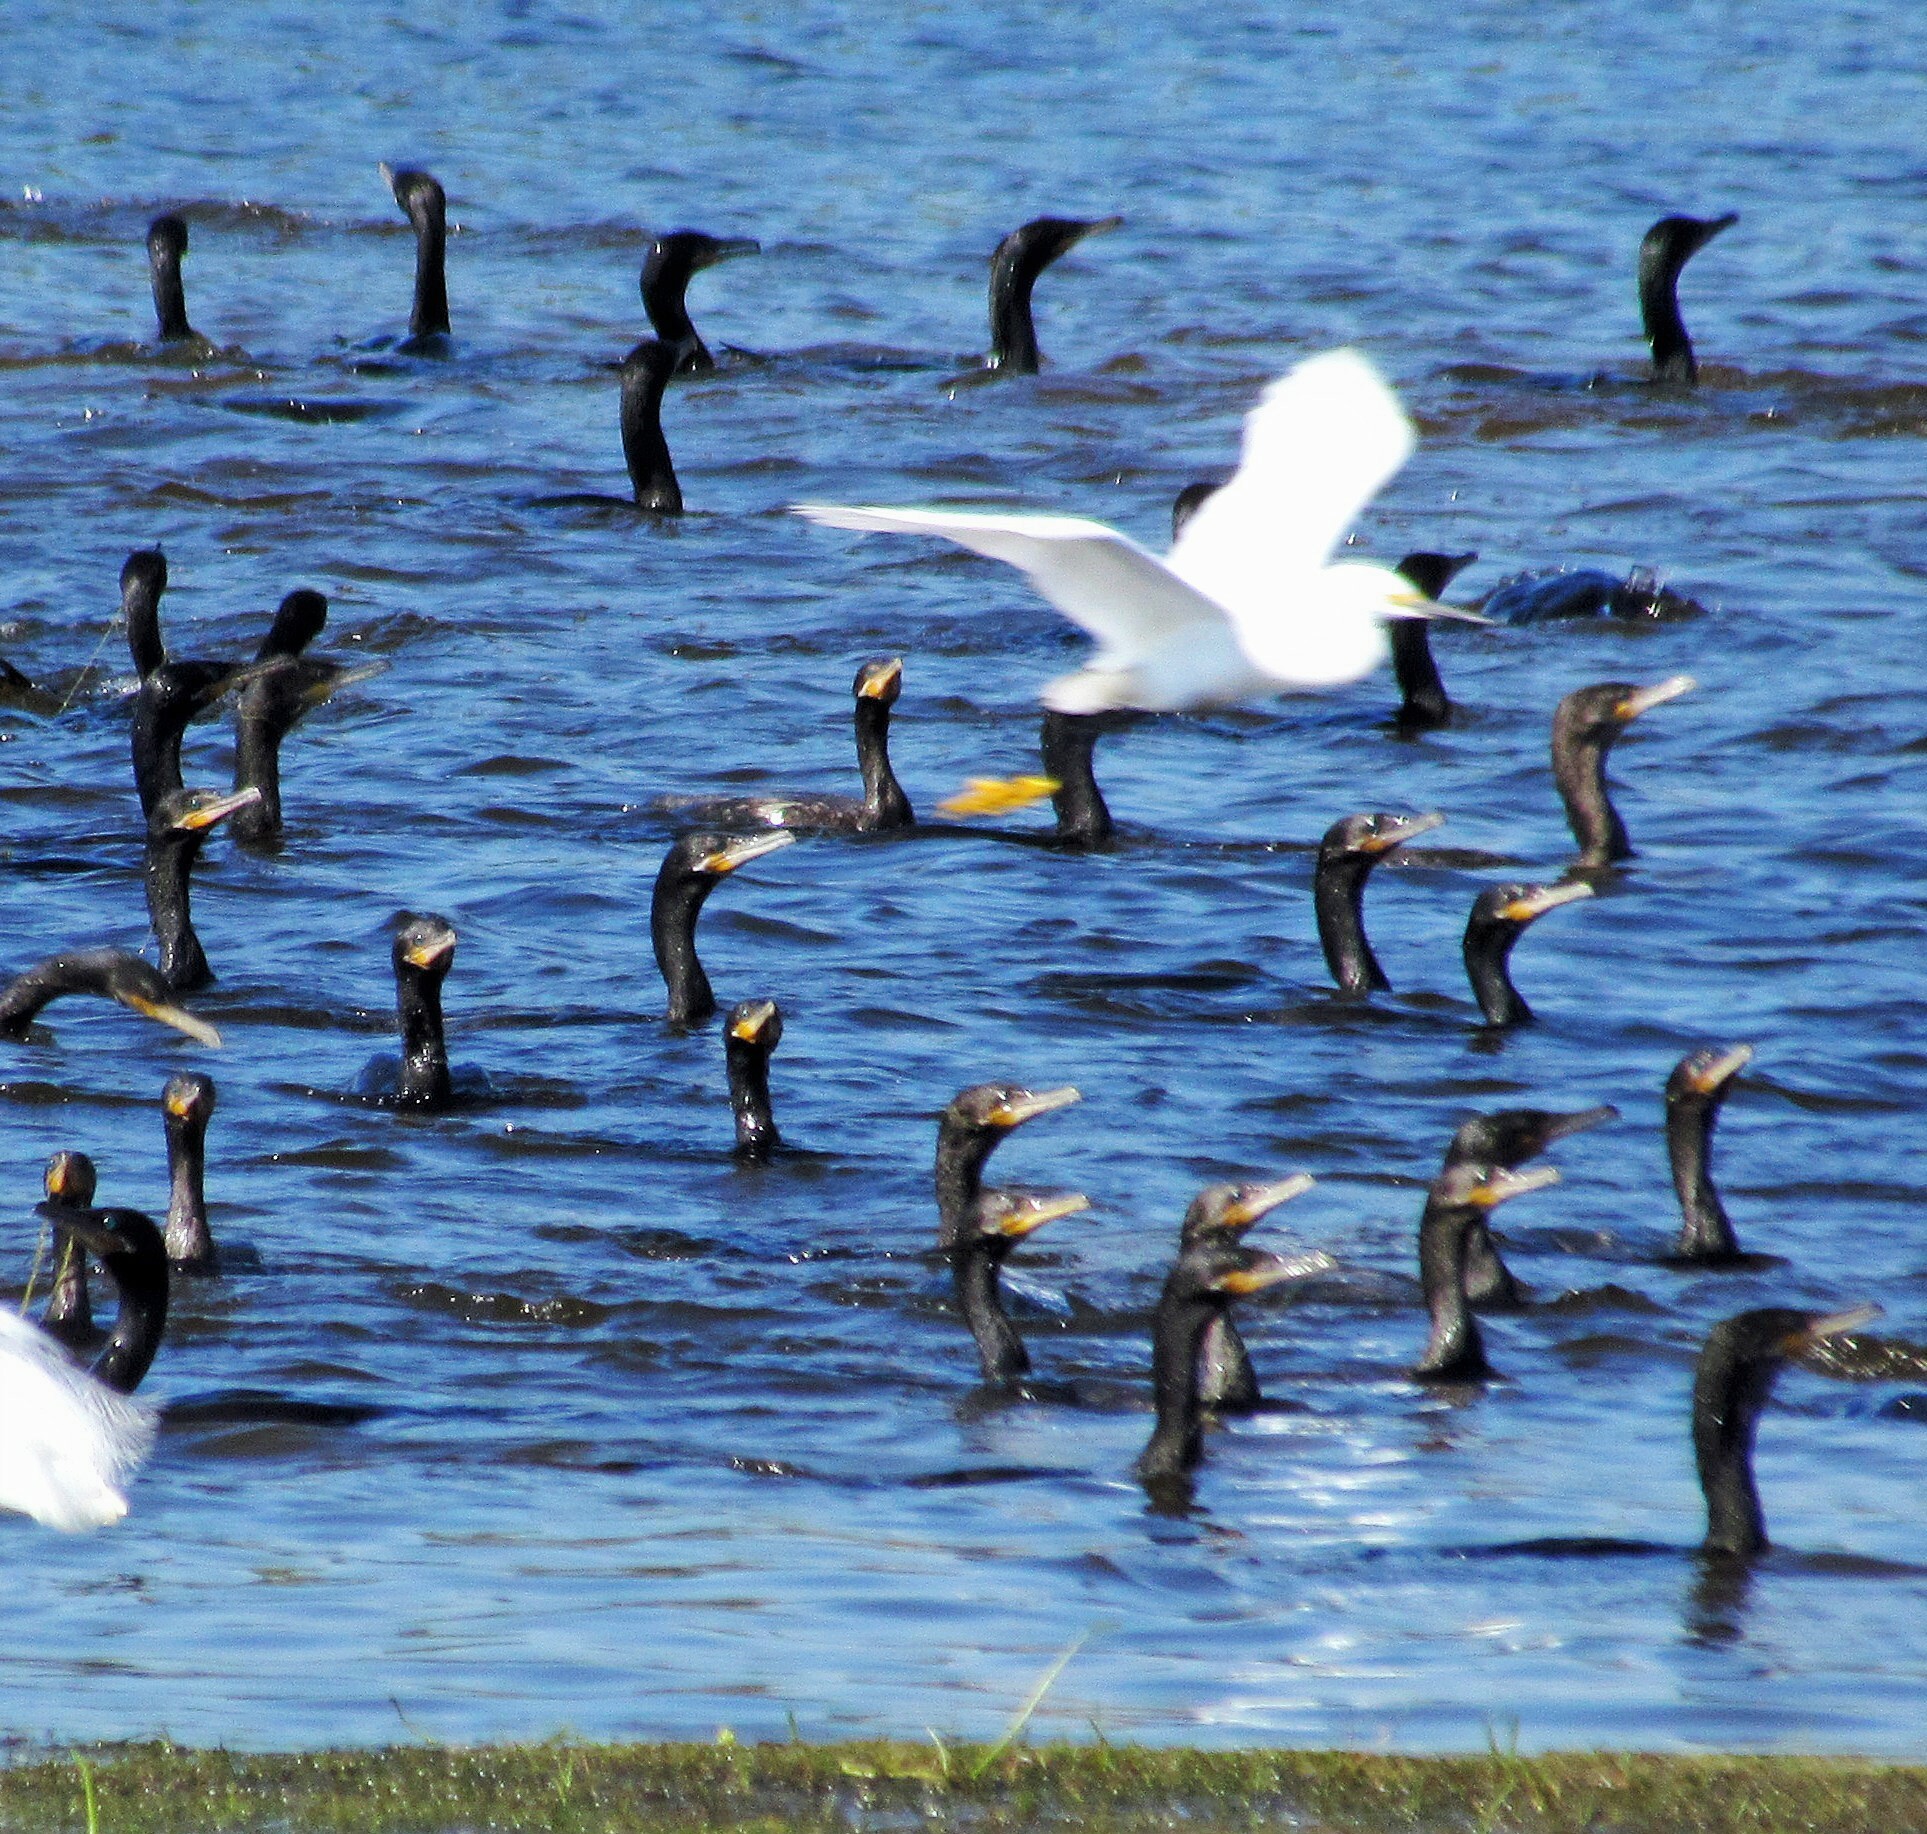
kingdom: Animalia
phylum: Chordata
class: Aves
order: Suliformes
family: Phalacrocoracidae
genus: Phalacrocorax
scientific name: Phalacrocorax brasilianus
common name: Neotropic cormorant
